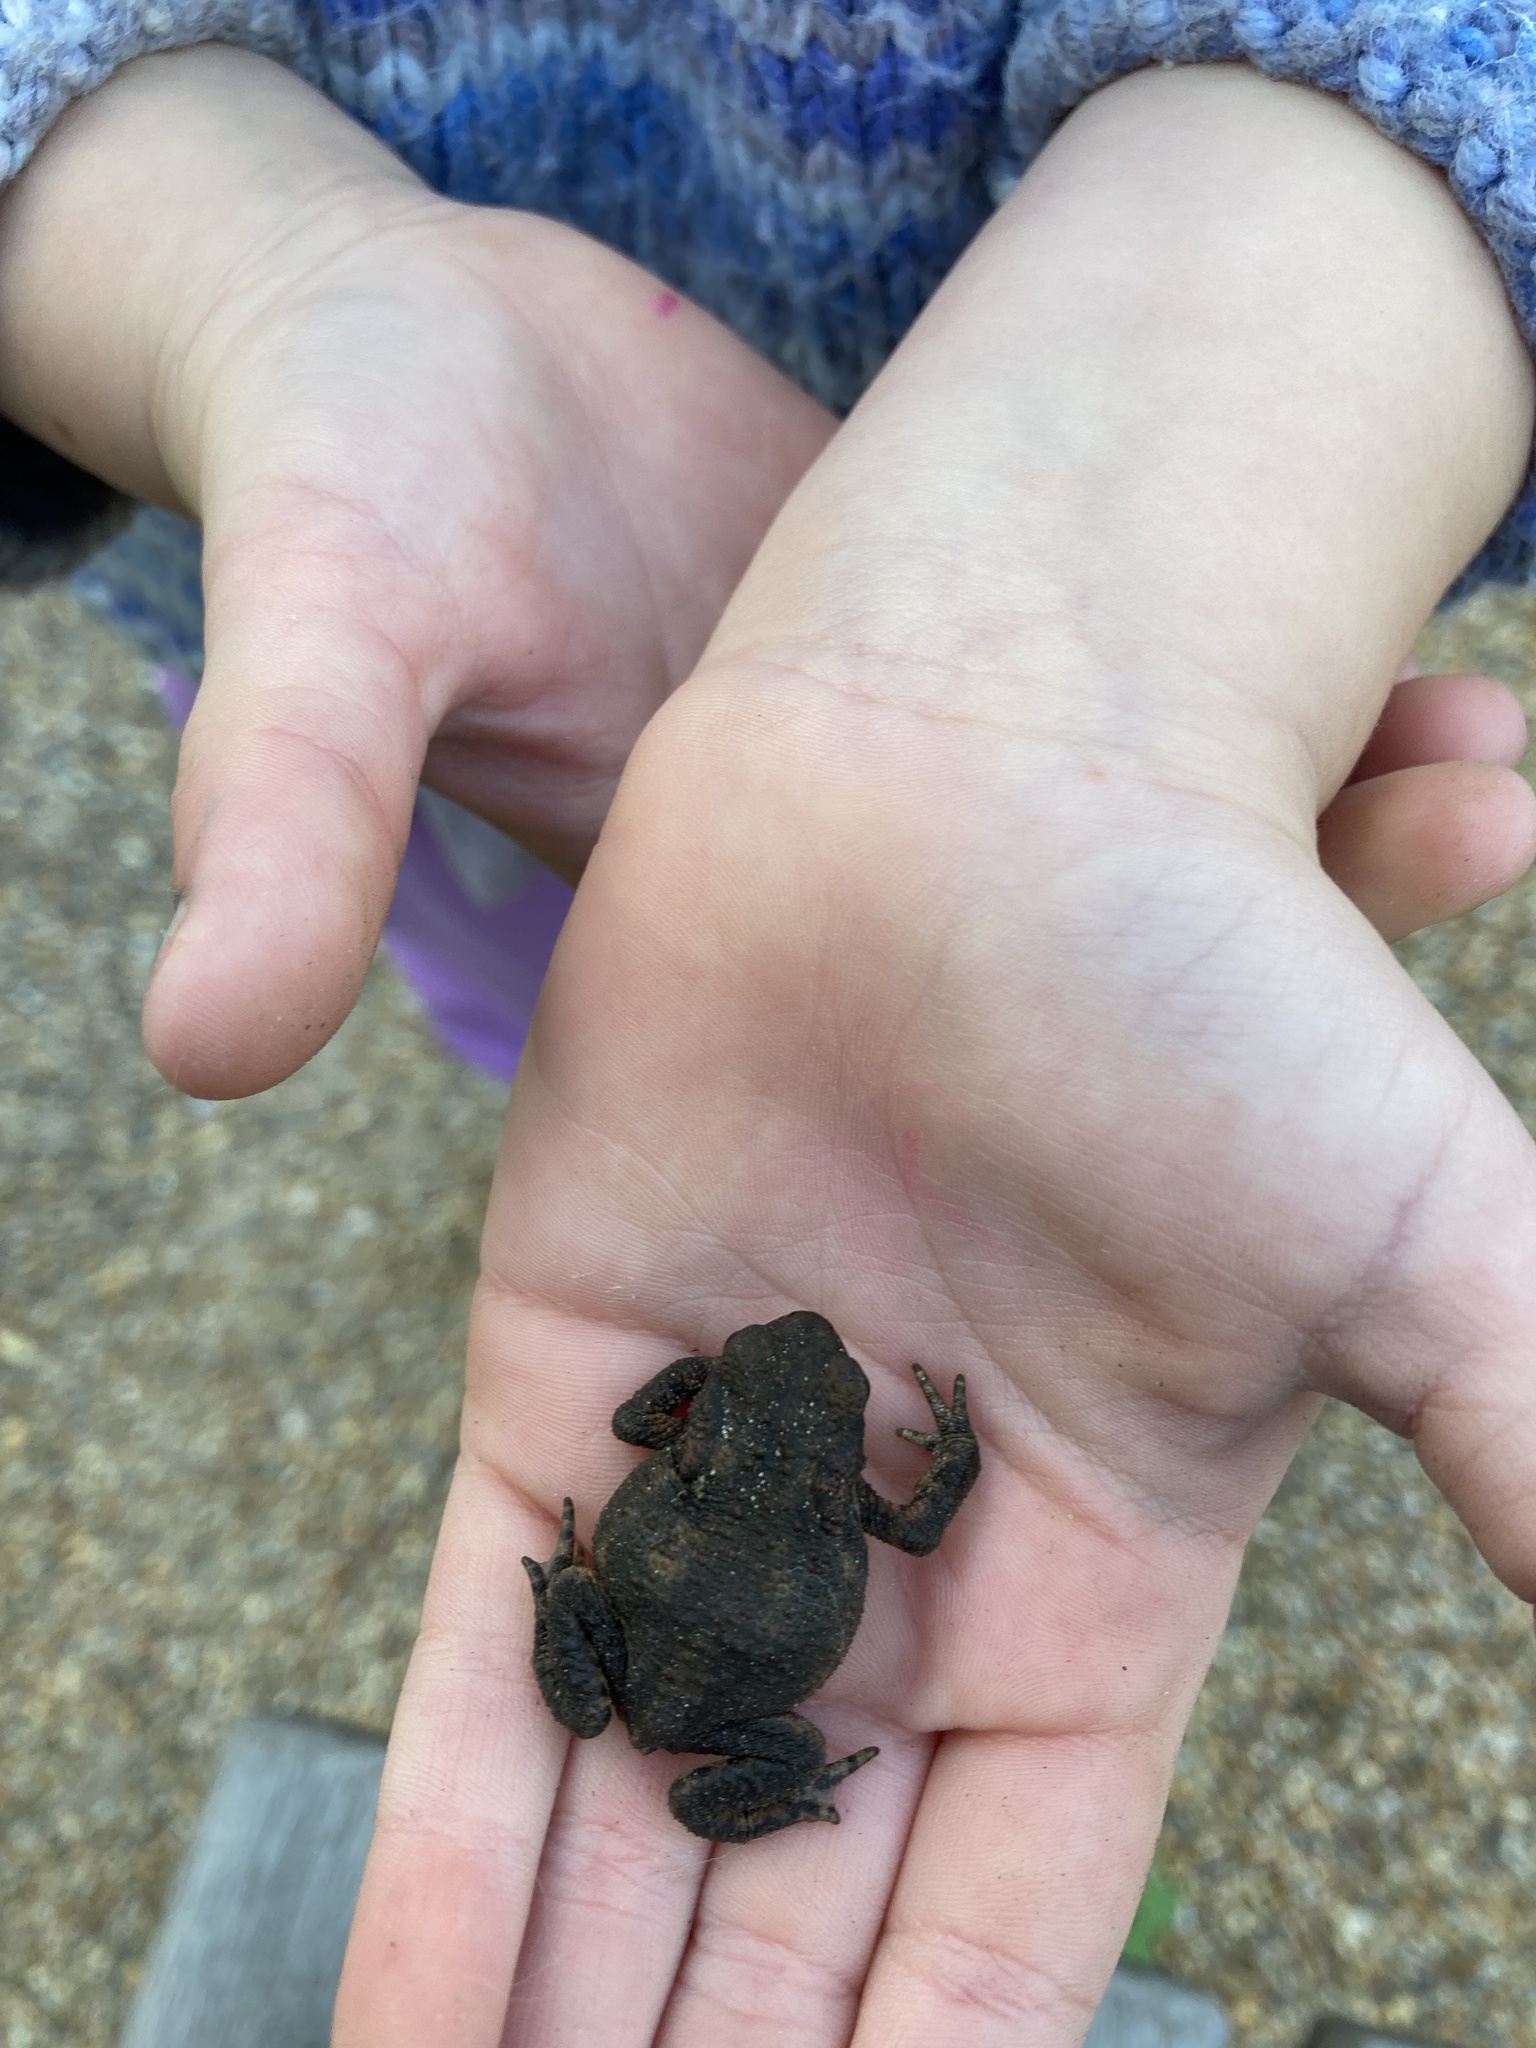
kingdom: Animalia
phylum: Chordata
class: Amphibia
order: Anura
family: Bufonidae
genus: Bufo
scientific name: Bufo bufo
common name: Common toad
